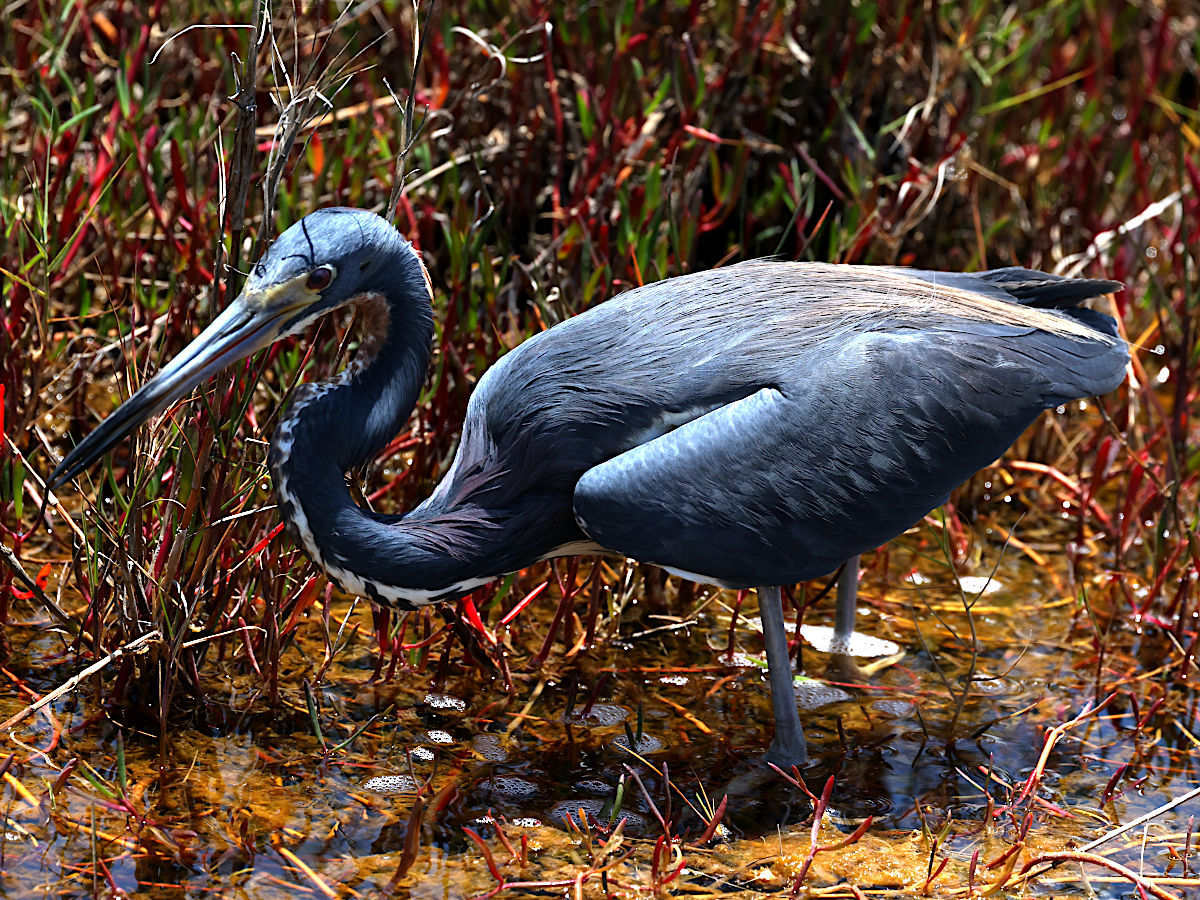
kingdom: Animalia
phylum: Chordata
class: Aves
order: Pelecaniformes
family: Ardeidae
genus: Egretta
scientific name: Egretta tricolor
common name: Tricolored heron
